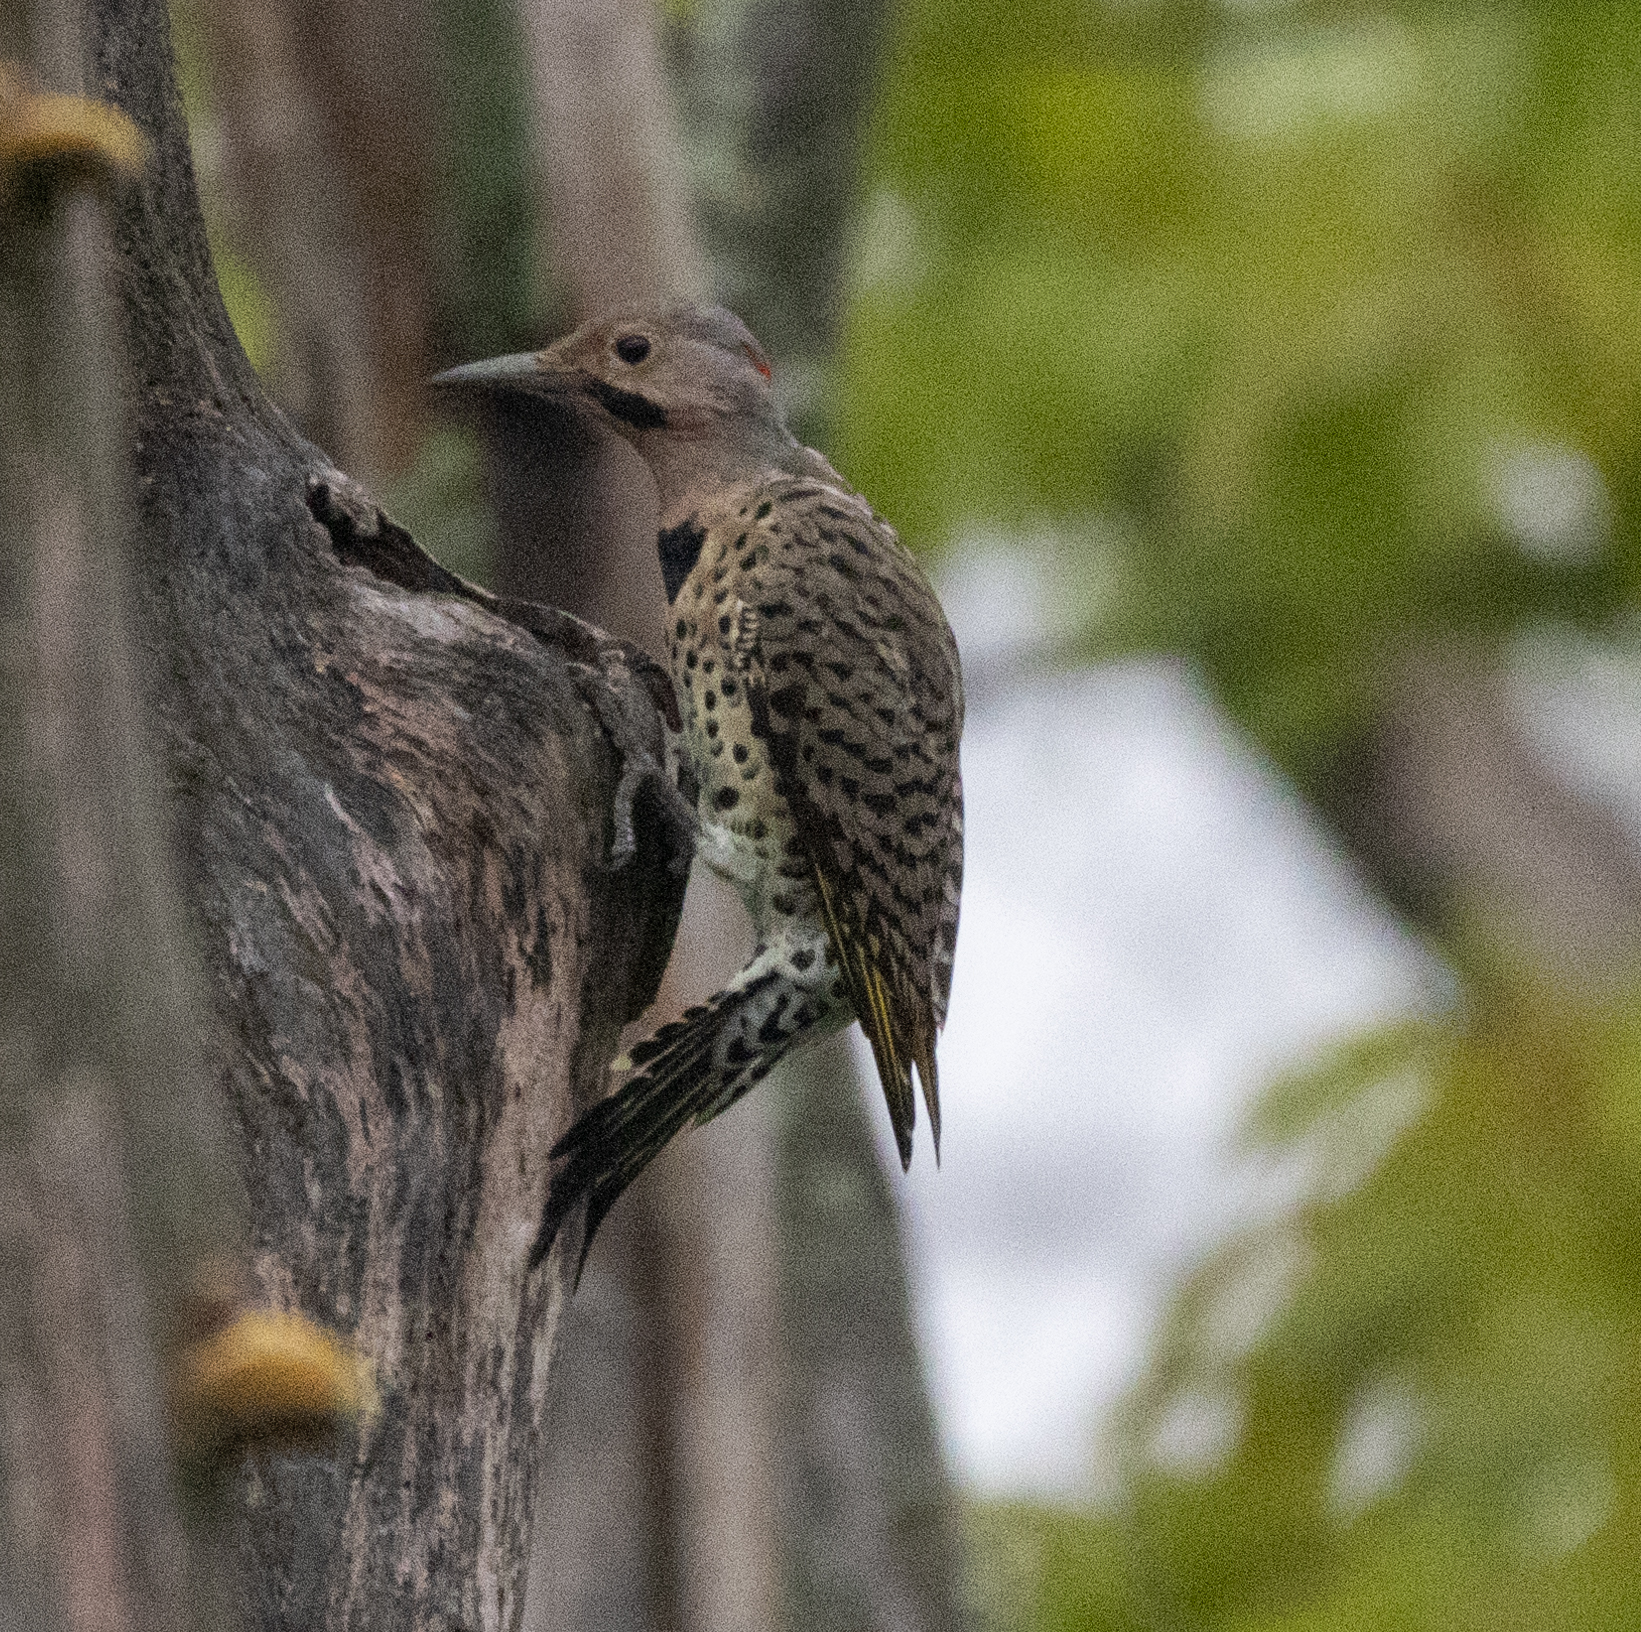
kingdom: Animalia
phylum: Chordata
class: Aves
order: Piciformes
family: Picidae
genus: Colaptes
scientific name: Colaptes auratus
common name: Northern flicker
